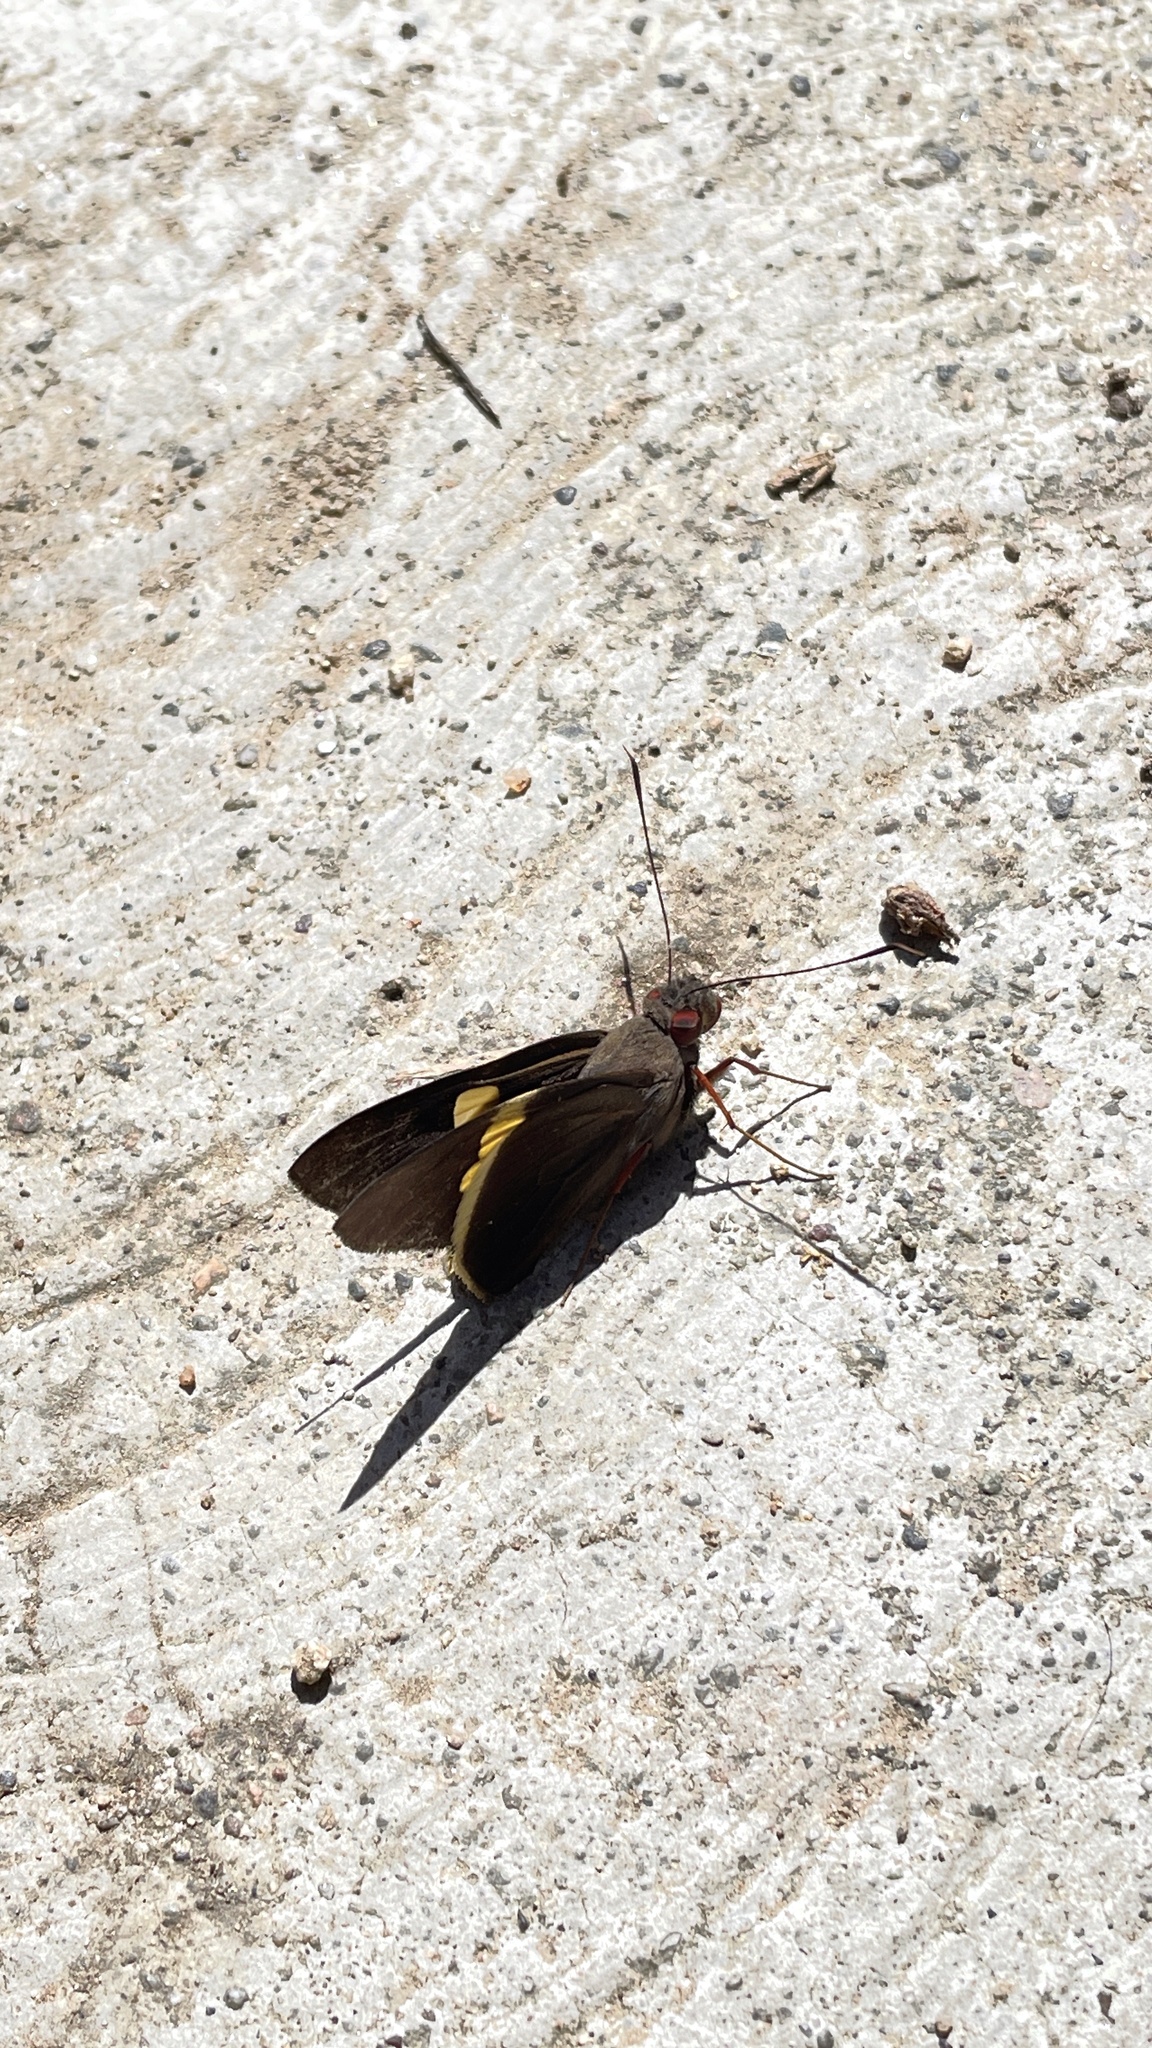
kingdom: Animalia
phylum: Arthropoda
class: Insecta
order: Lepidoptera
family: Hesperiidae
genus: Orses
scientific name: Orses cynisca
